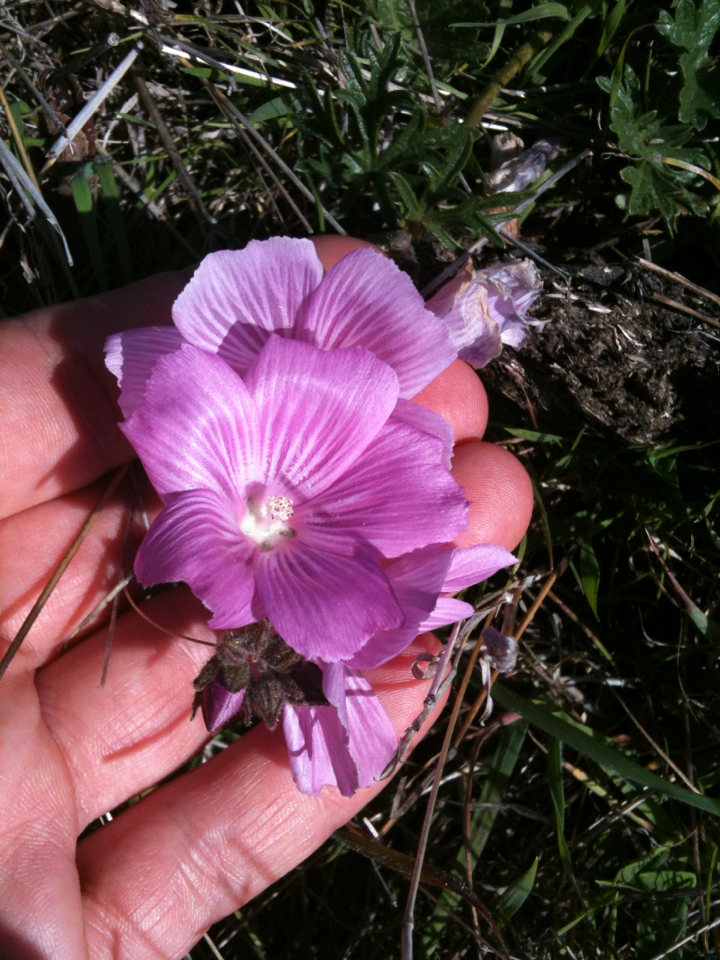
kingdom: Plantae
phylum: Tracheophyta
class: Magnoliopsida
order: Malvales
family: Malvaceae
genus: Sidalcea
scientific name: Sidalcea malviflora
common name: Greek mallow
